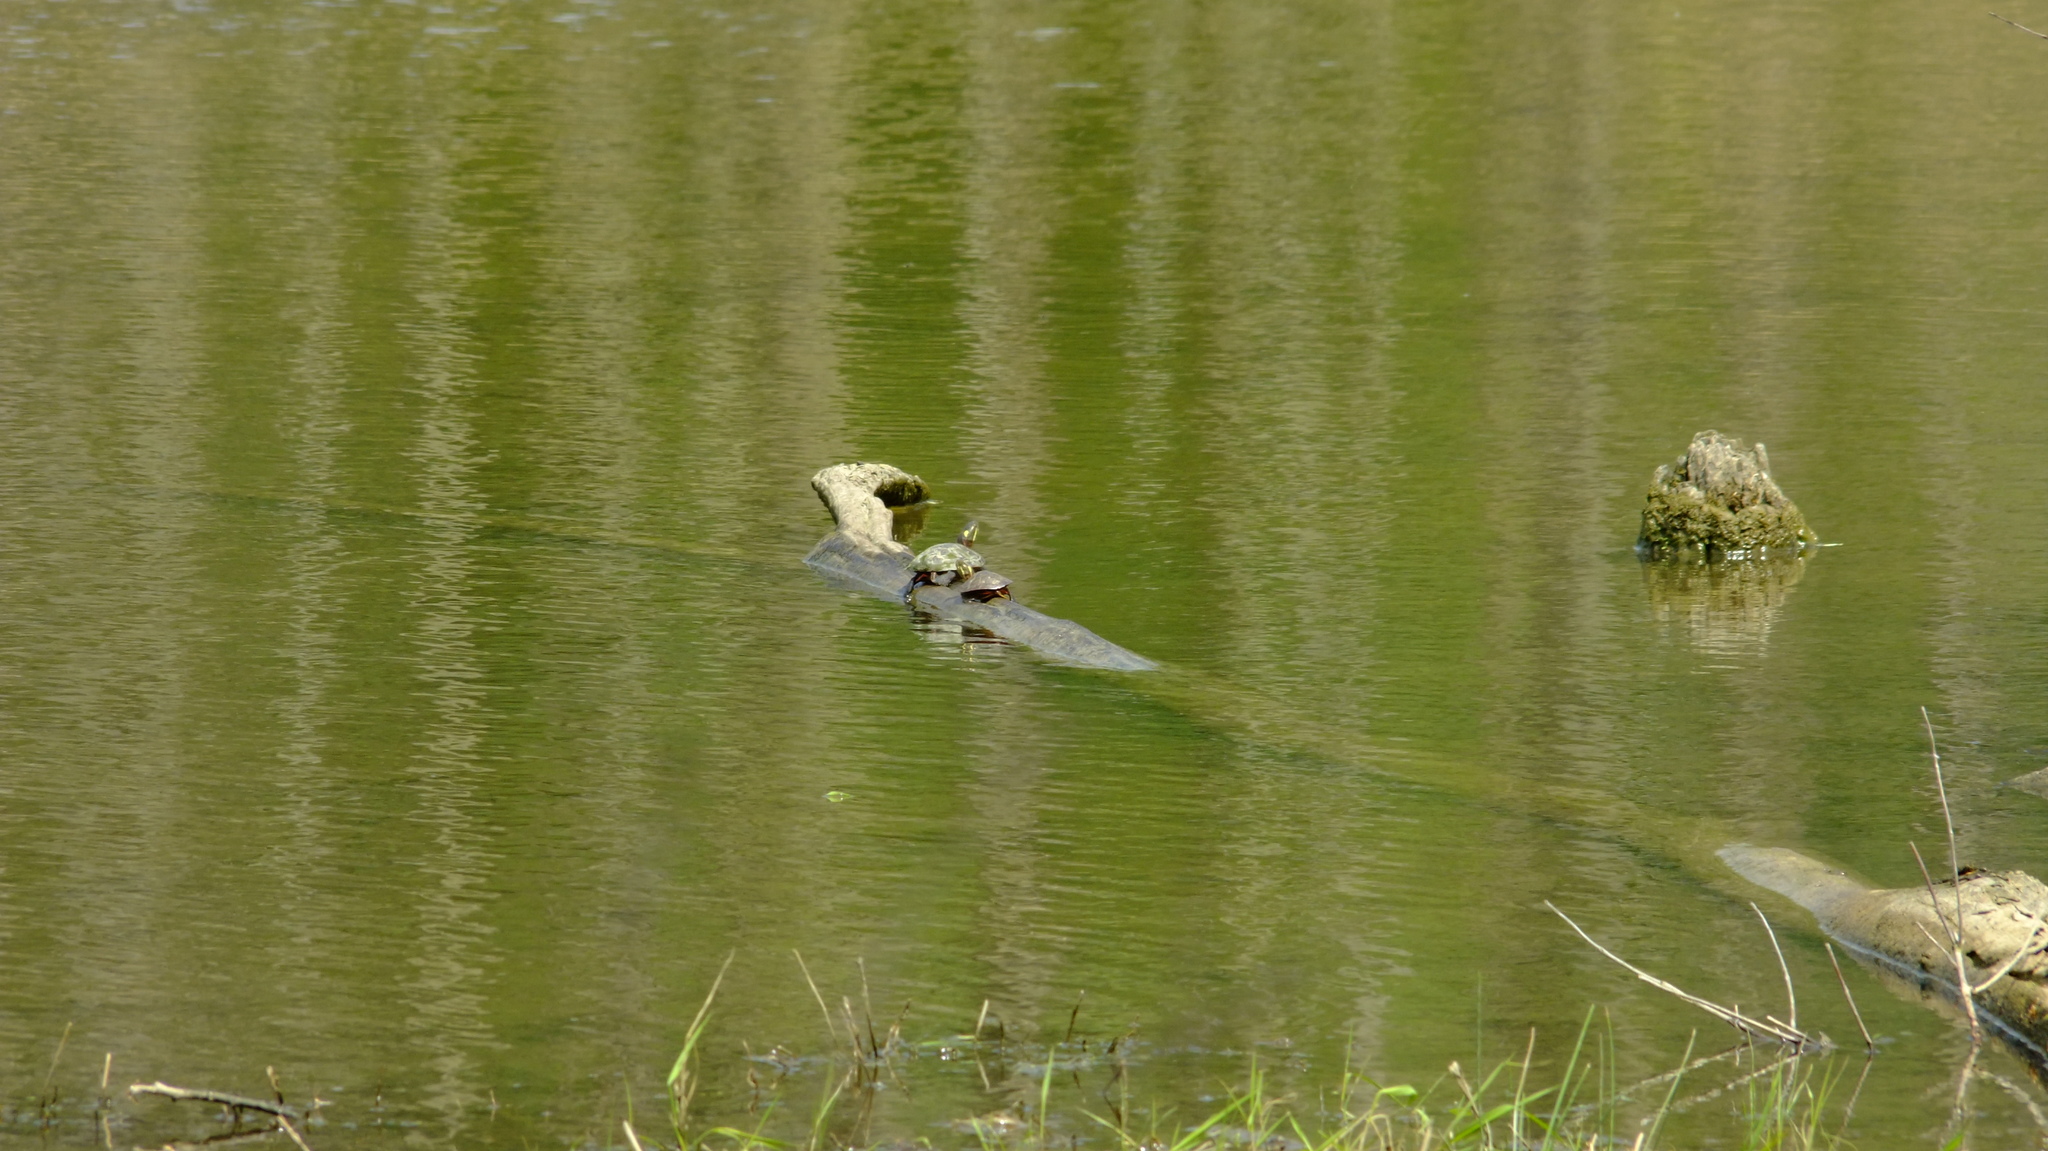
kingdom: Animalia
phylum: Chordata
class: Testudines
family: Emydidae
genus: Chrysemys
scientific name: Chrysemys picta
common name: Painted turtle
